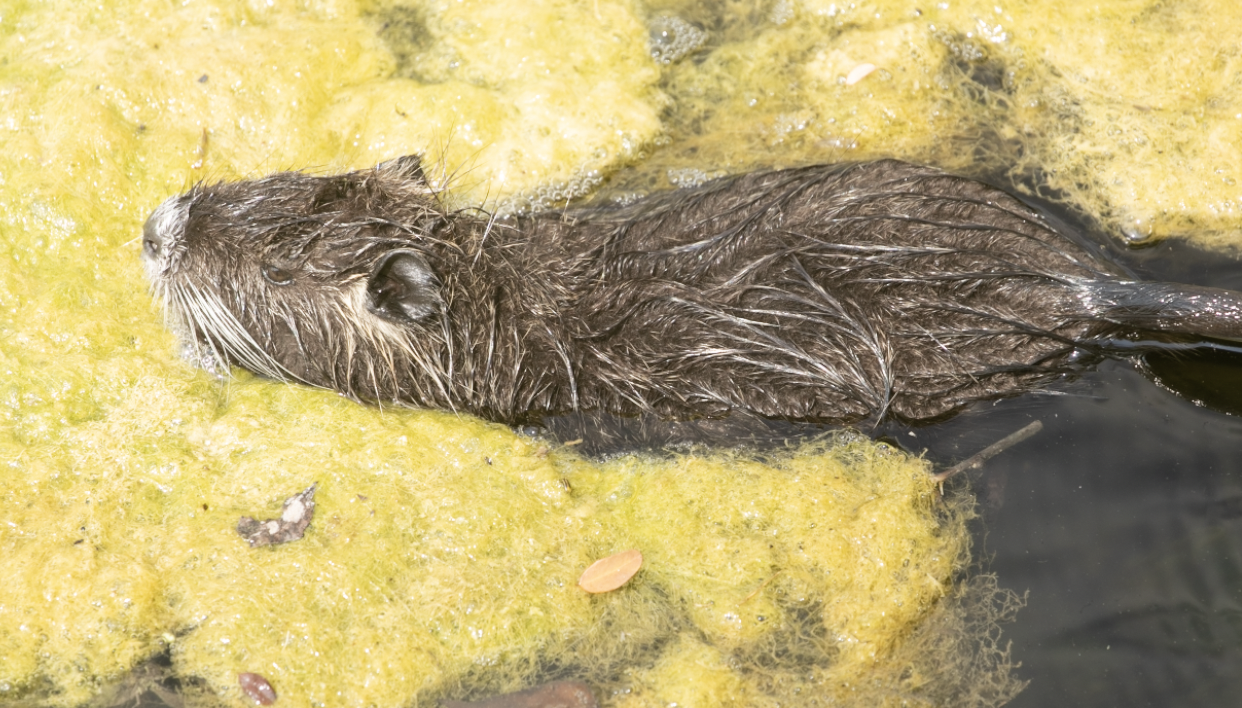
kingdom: Animalia
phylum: Chordata
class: Mammalia
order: Rodentia
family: Myocastoridae
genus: Myocastor
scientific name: Myocastor coypus
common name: Coypu
